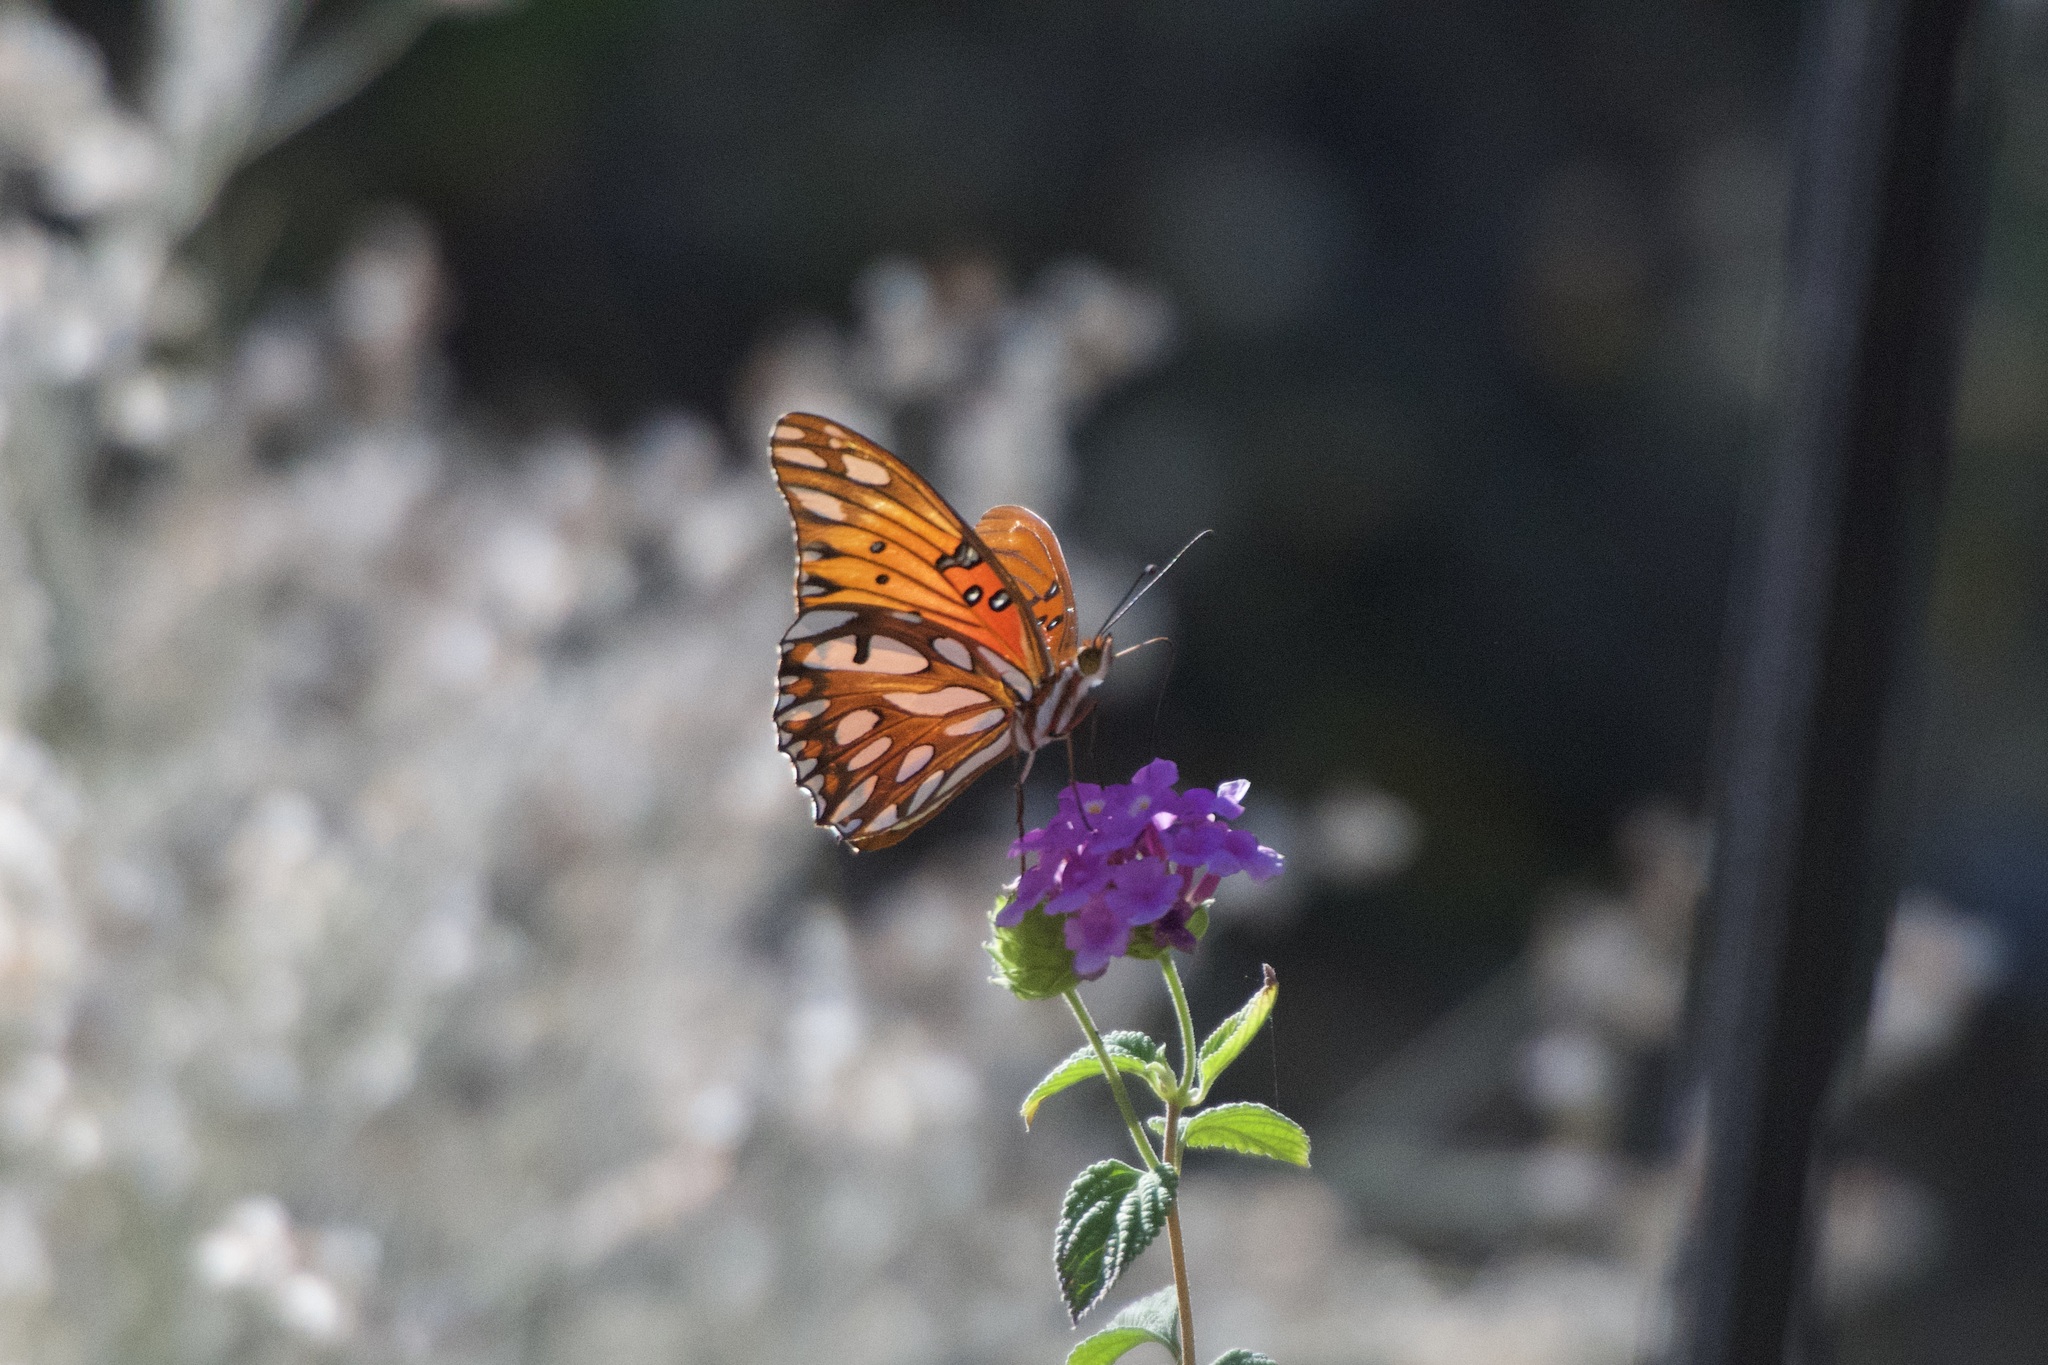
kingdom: Animalia
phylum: Arthropoda
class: Insecta
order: Lepidoptera
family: Nymphalidae
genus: Dione
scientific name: Dione vanillae
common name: Gulf fritillary
